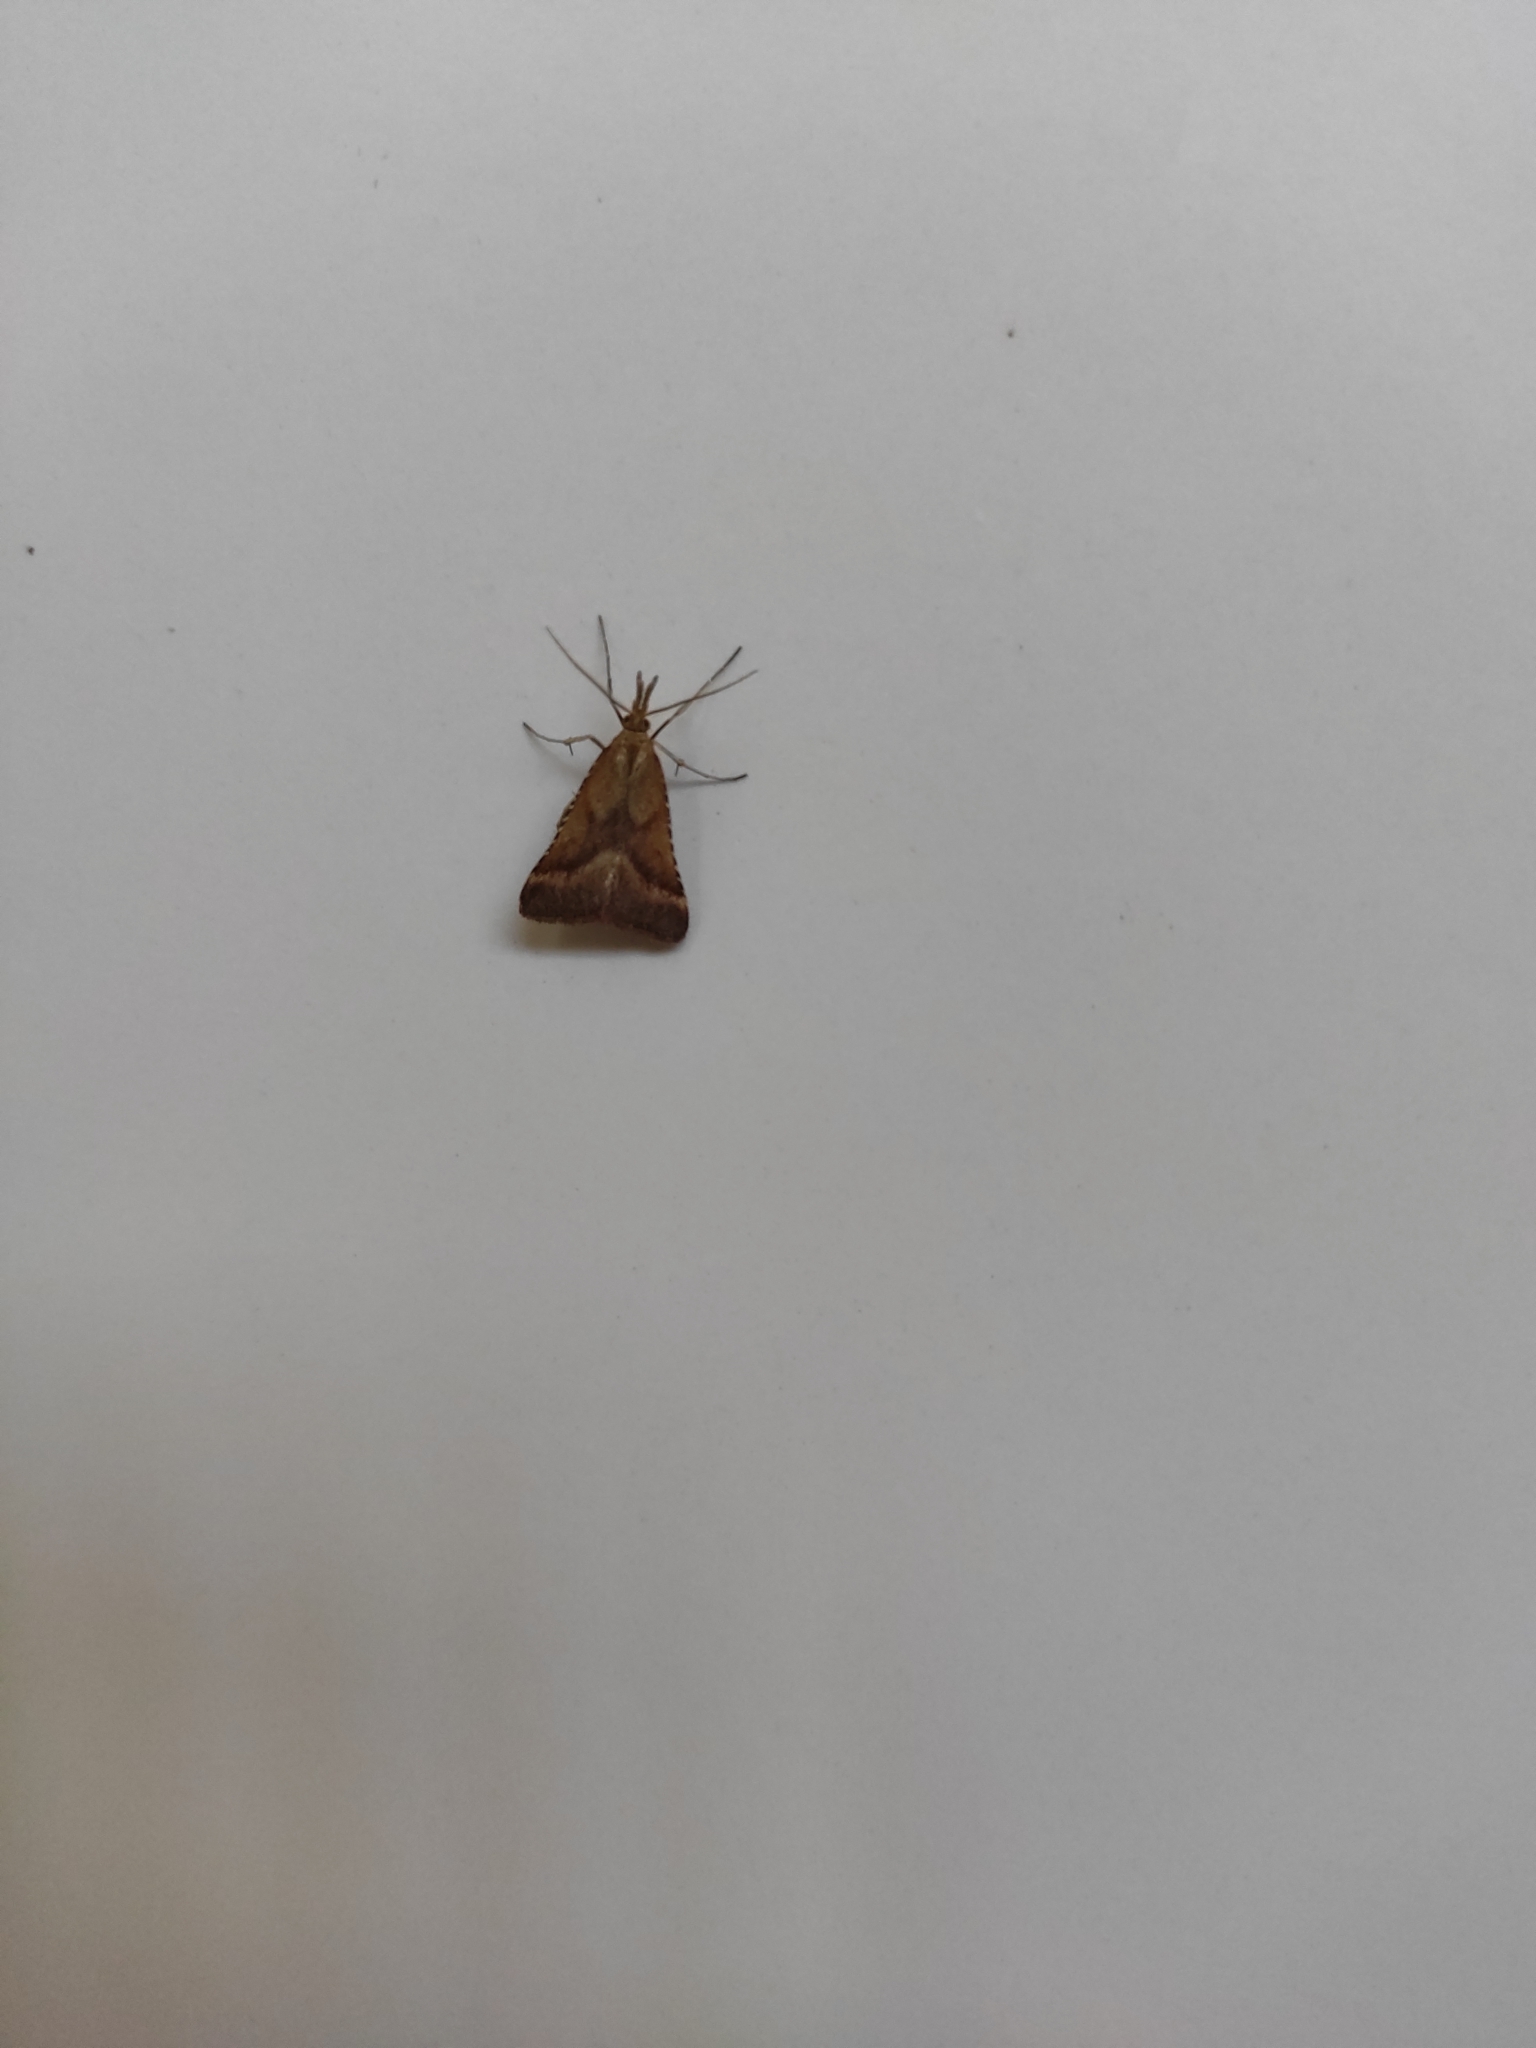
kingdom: Animalia
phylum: Arthropoda
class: Insecta
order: Lepidoptera
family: Pyralidae
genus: Synaphe
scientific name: Synaphe punctalis
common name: Long-legged tabby
